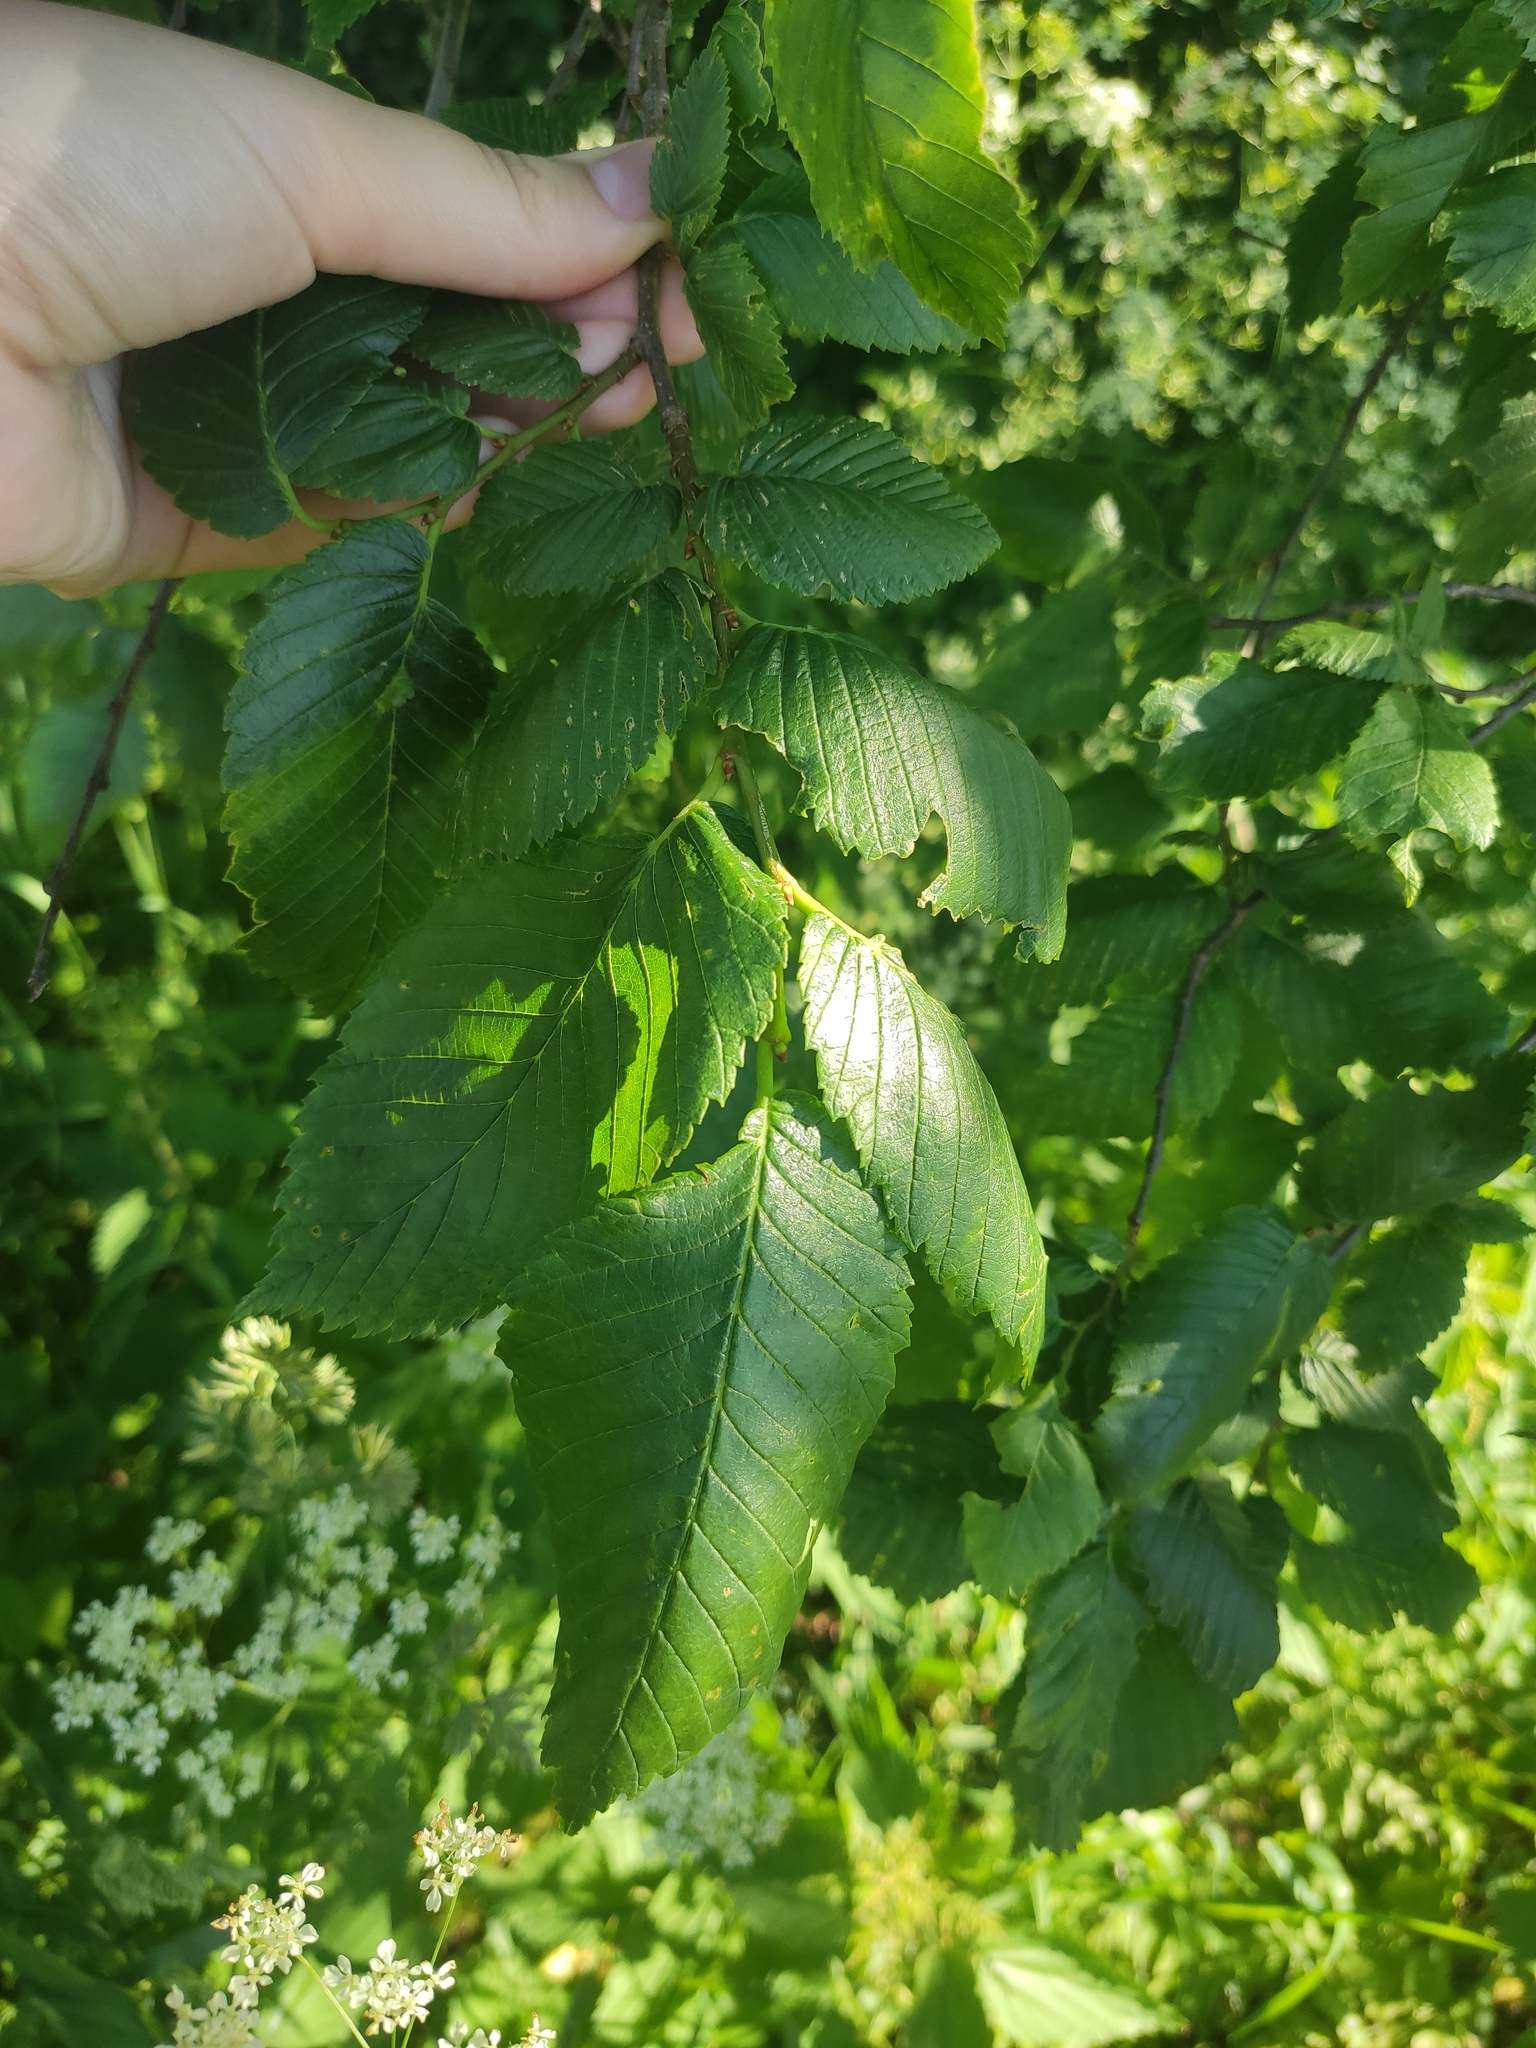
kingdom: Plantae
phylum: Tracheophyta
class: Magnoliopsida
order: Rosales
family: Ulmaceae
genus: Ulmus
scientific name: Ulmus laevis
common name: European white-elm
